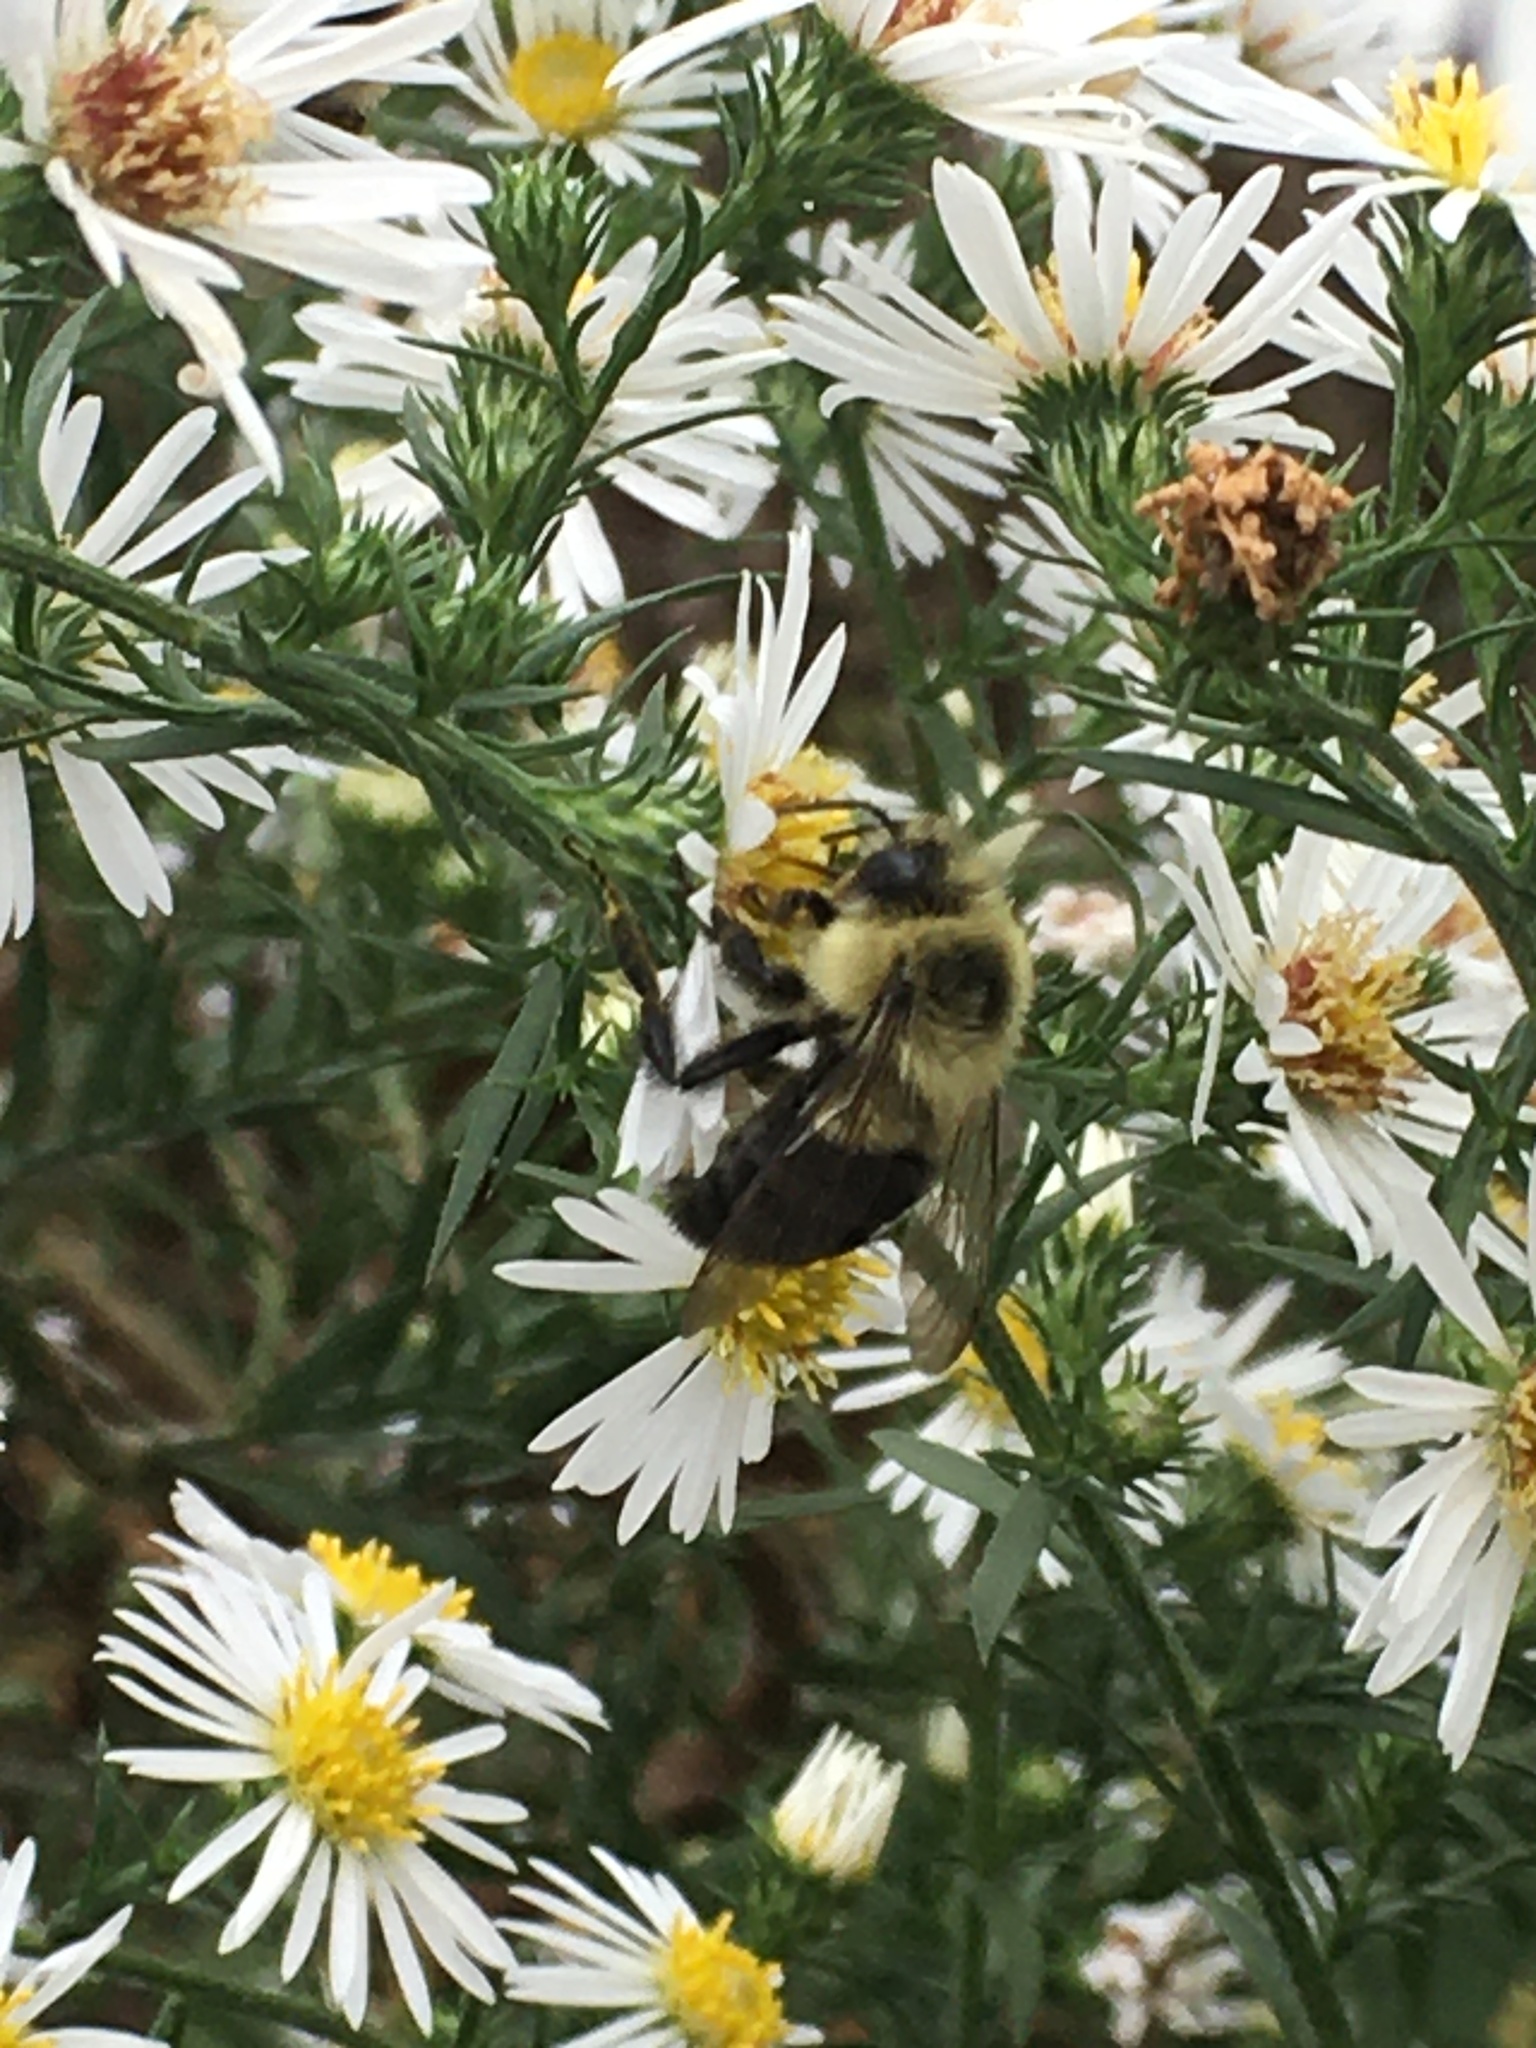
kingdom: Animalia
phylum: Arthropoda
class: Insecta
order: Hymenoptera
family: Apidae
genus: Bombus
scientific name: Bombus impatiens
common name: Common eastern bumble bee
